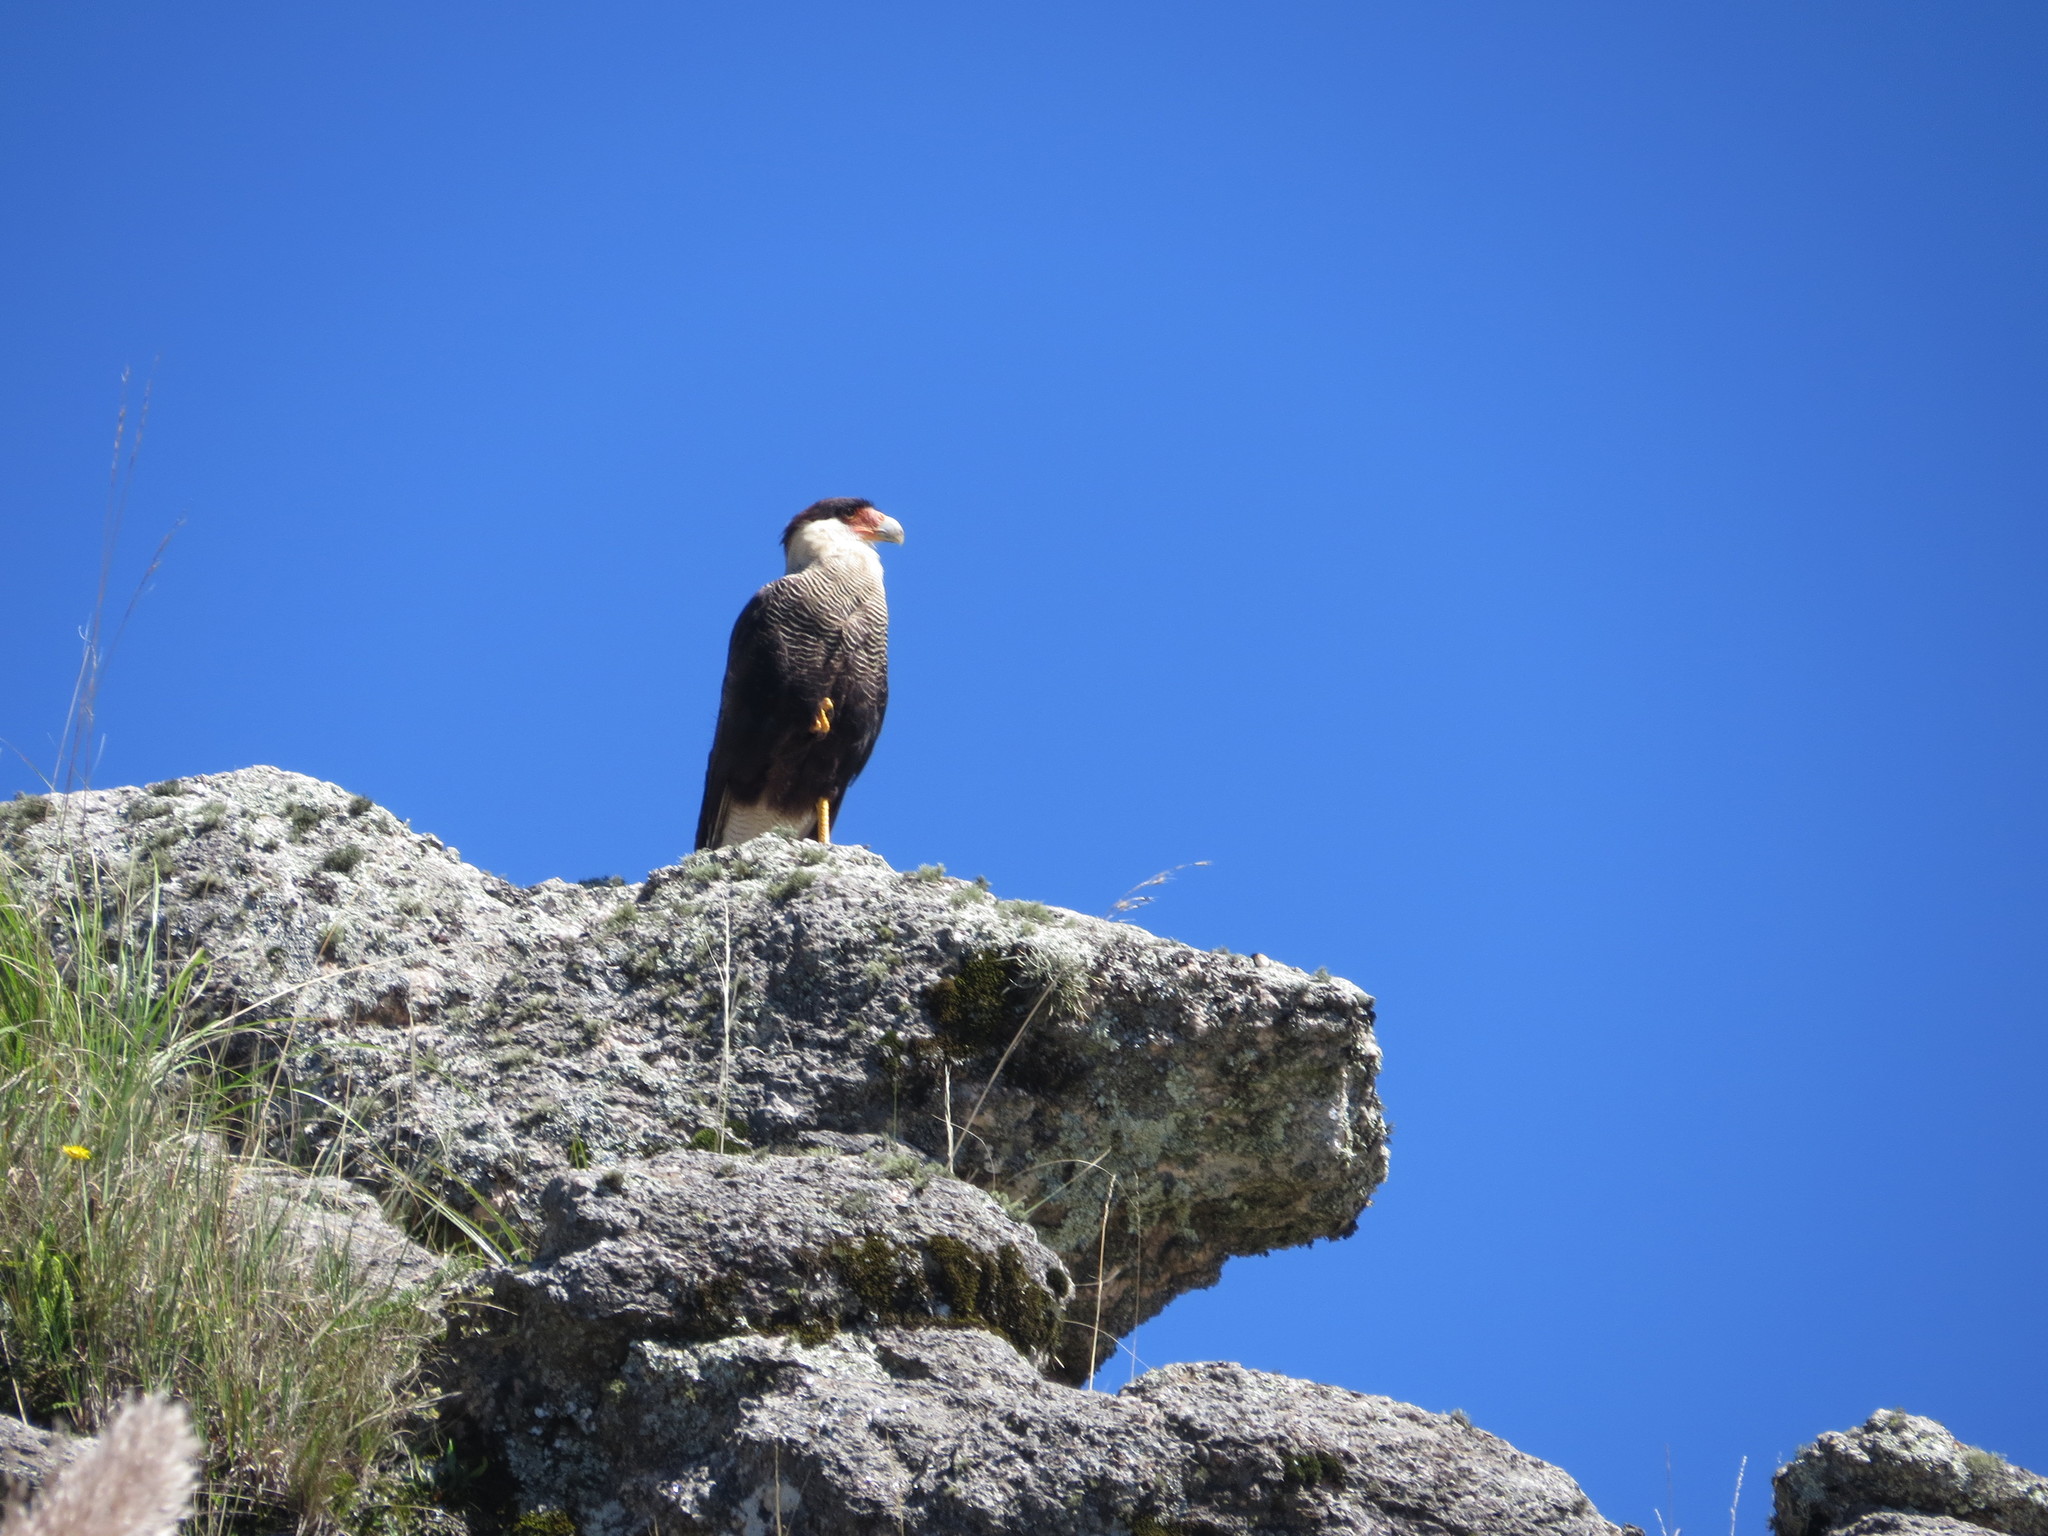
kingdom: Animalia
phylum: Chordata
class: Aves
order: Falconiformes
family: Falconidae
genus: Caracara
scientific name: Caracara plancus
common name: Southern caracara
